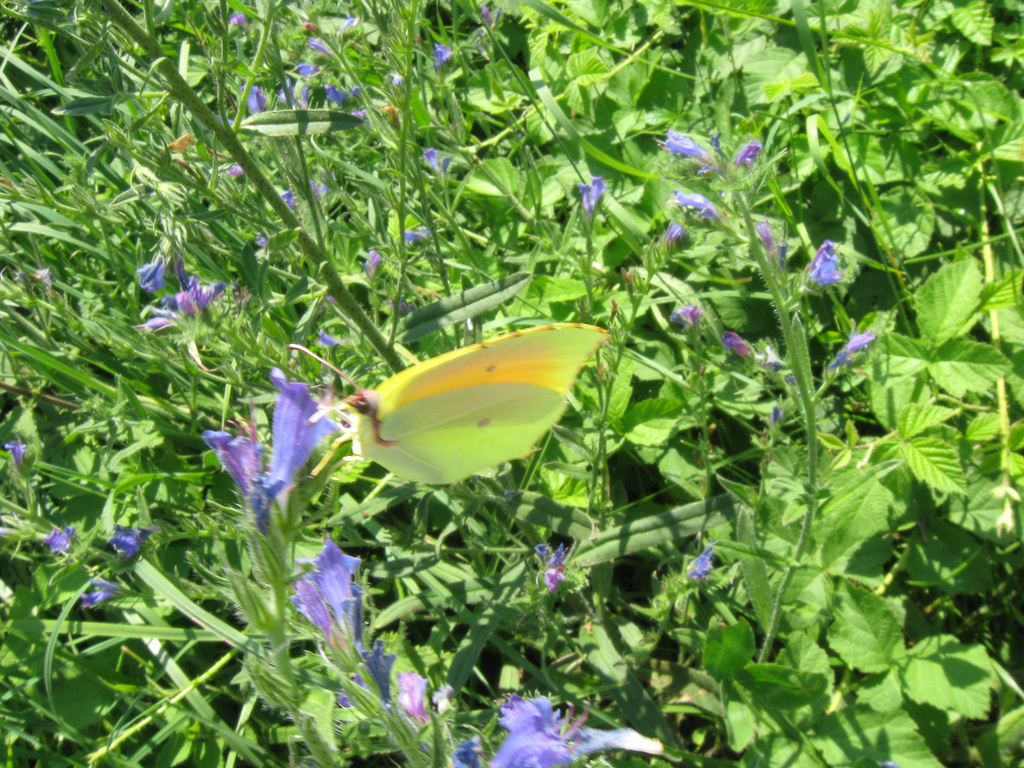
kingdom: Animalia
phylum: Arthropoda
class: Insecta
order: Lepidoptera
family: Pieridae
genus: Gonepteryx
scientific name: Gonepteryx cleopatra
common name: Cleopatra
